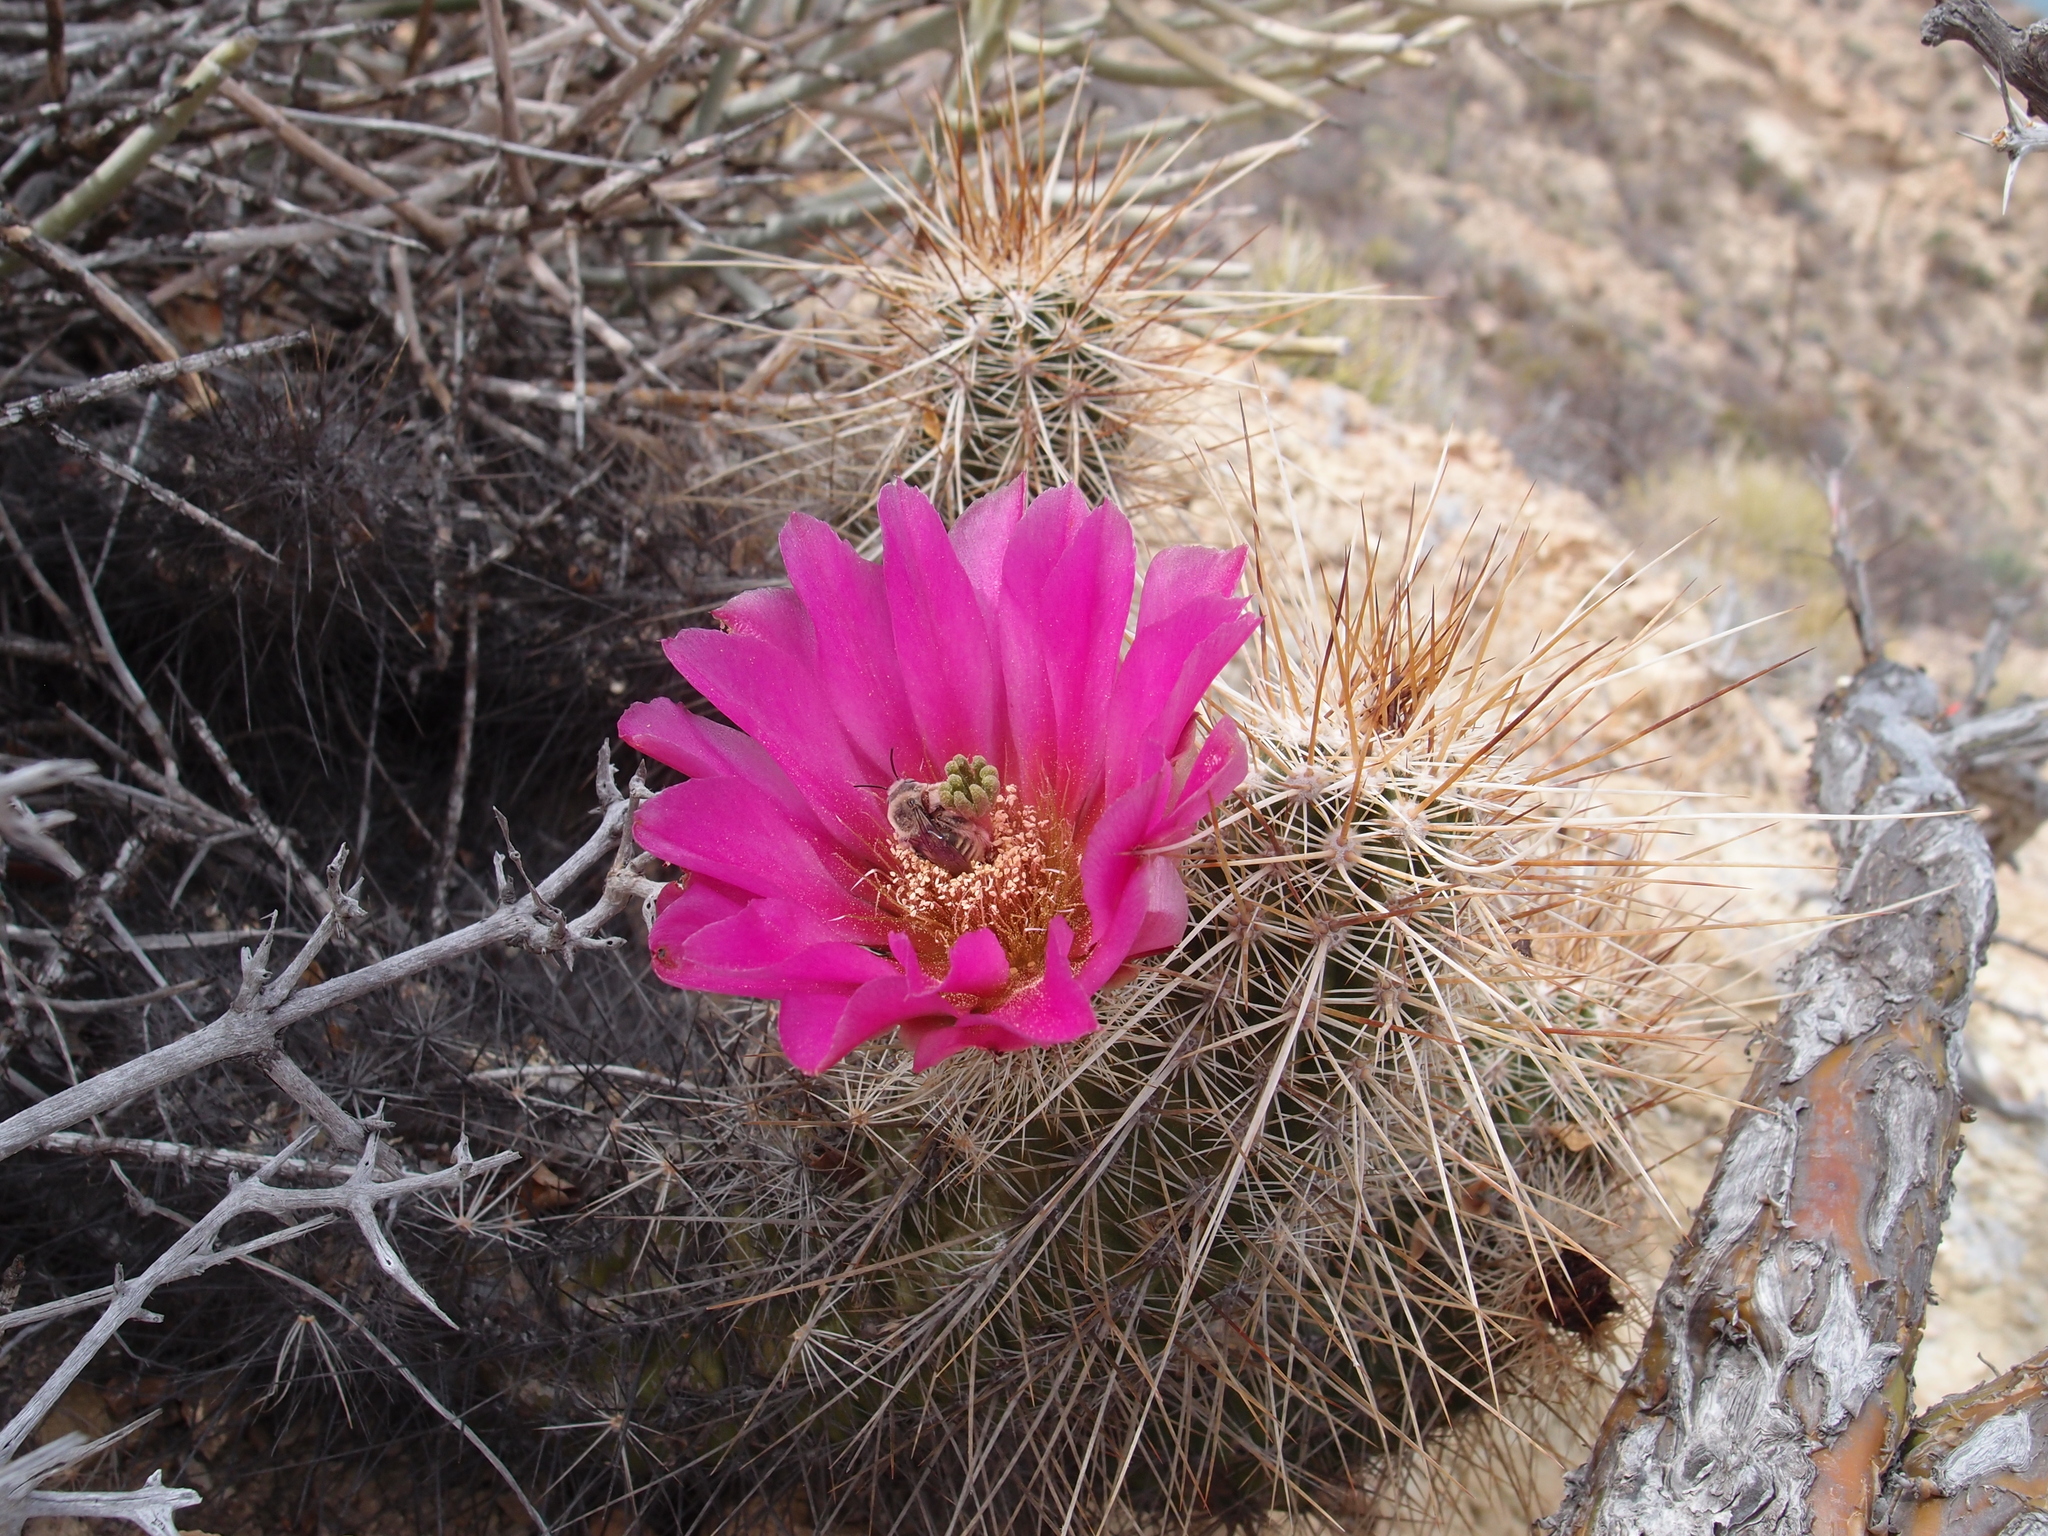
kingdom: Plantae
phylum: Tracheophyta
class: Magnoliopsida
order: Caryophyllales
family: Cactaceae
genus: Echinocereus
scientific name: Echinocereus llanurensis
